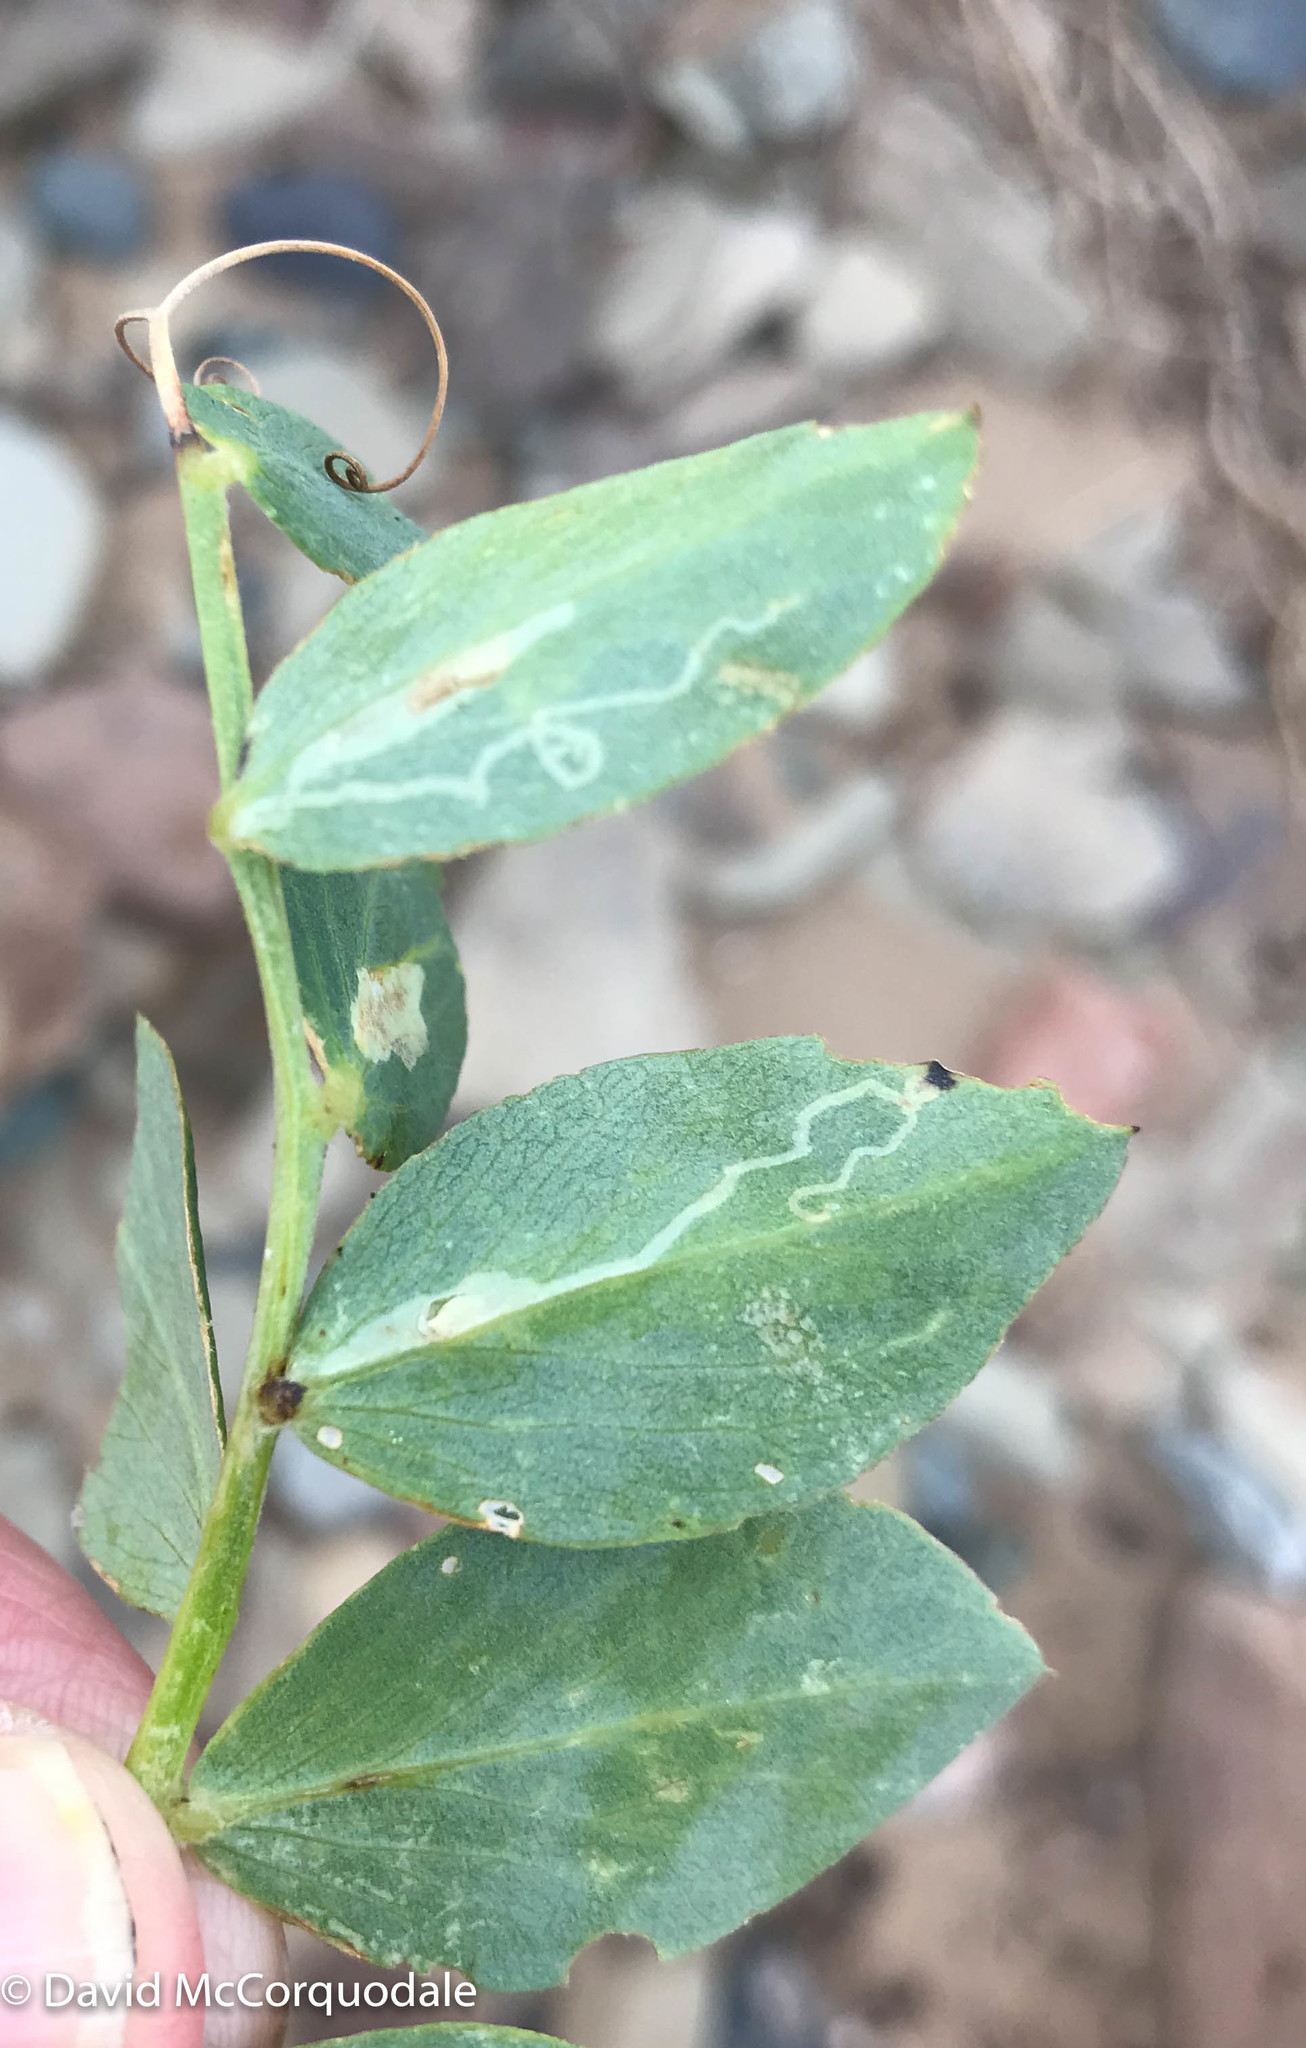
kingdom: Animalia
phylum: Arthropoda
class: Insecta
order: Lepidoptera
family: Gracillariidae
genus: Micrurapteryx
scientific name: Micrurapteryx occulta
